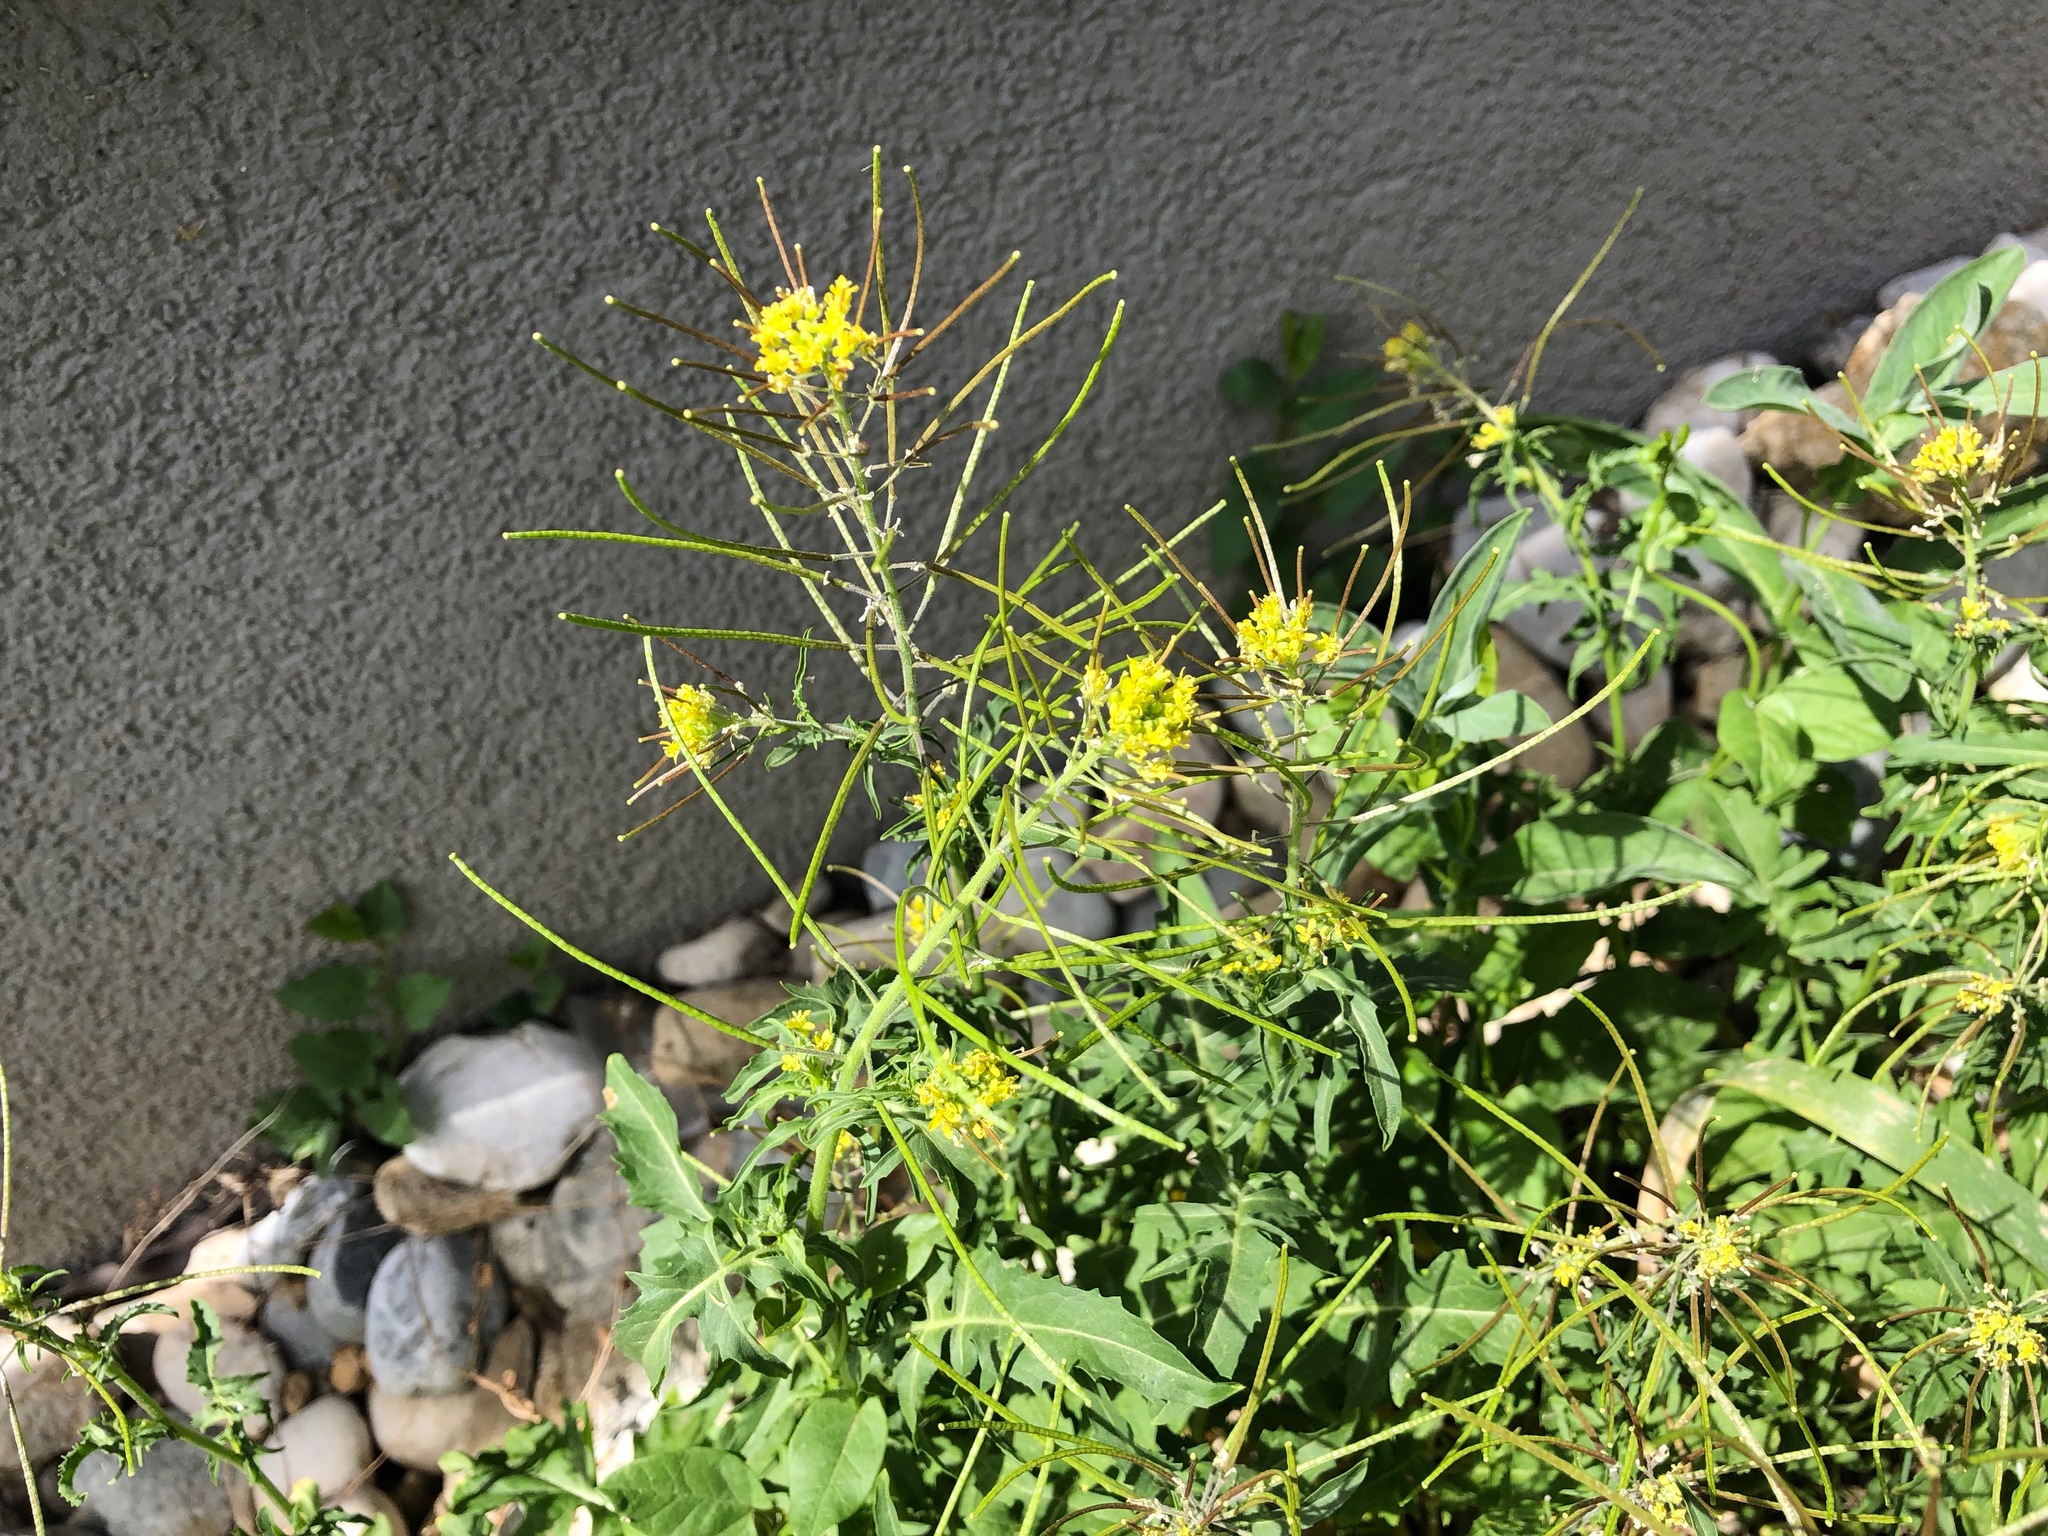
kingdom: Plantae
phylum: Tracheophyta
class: Magnoliopsida
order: Brassicales
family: Brassicaceae
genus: Sisymbrium
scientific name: Sisymbrium irio
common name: London rocket
